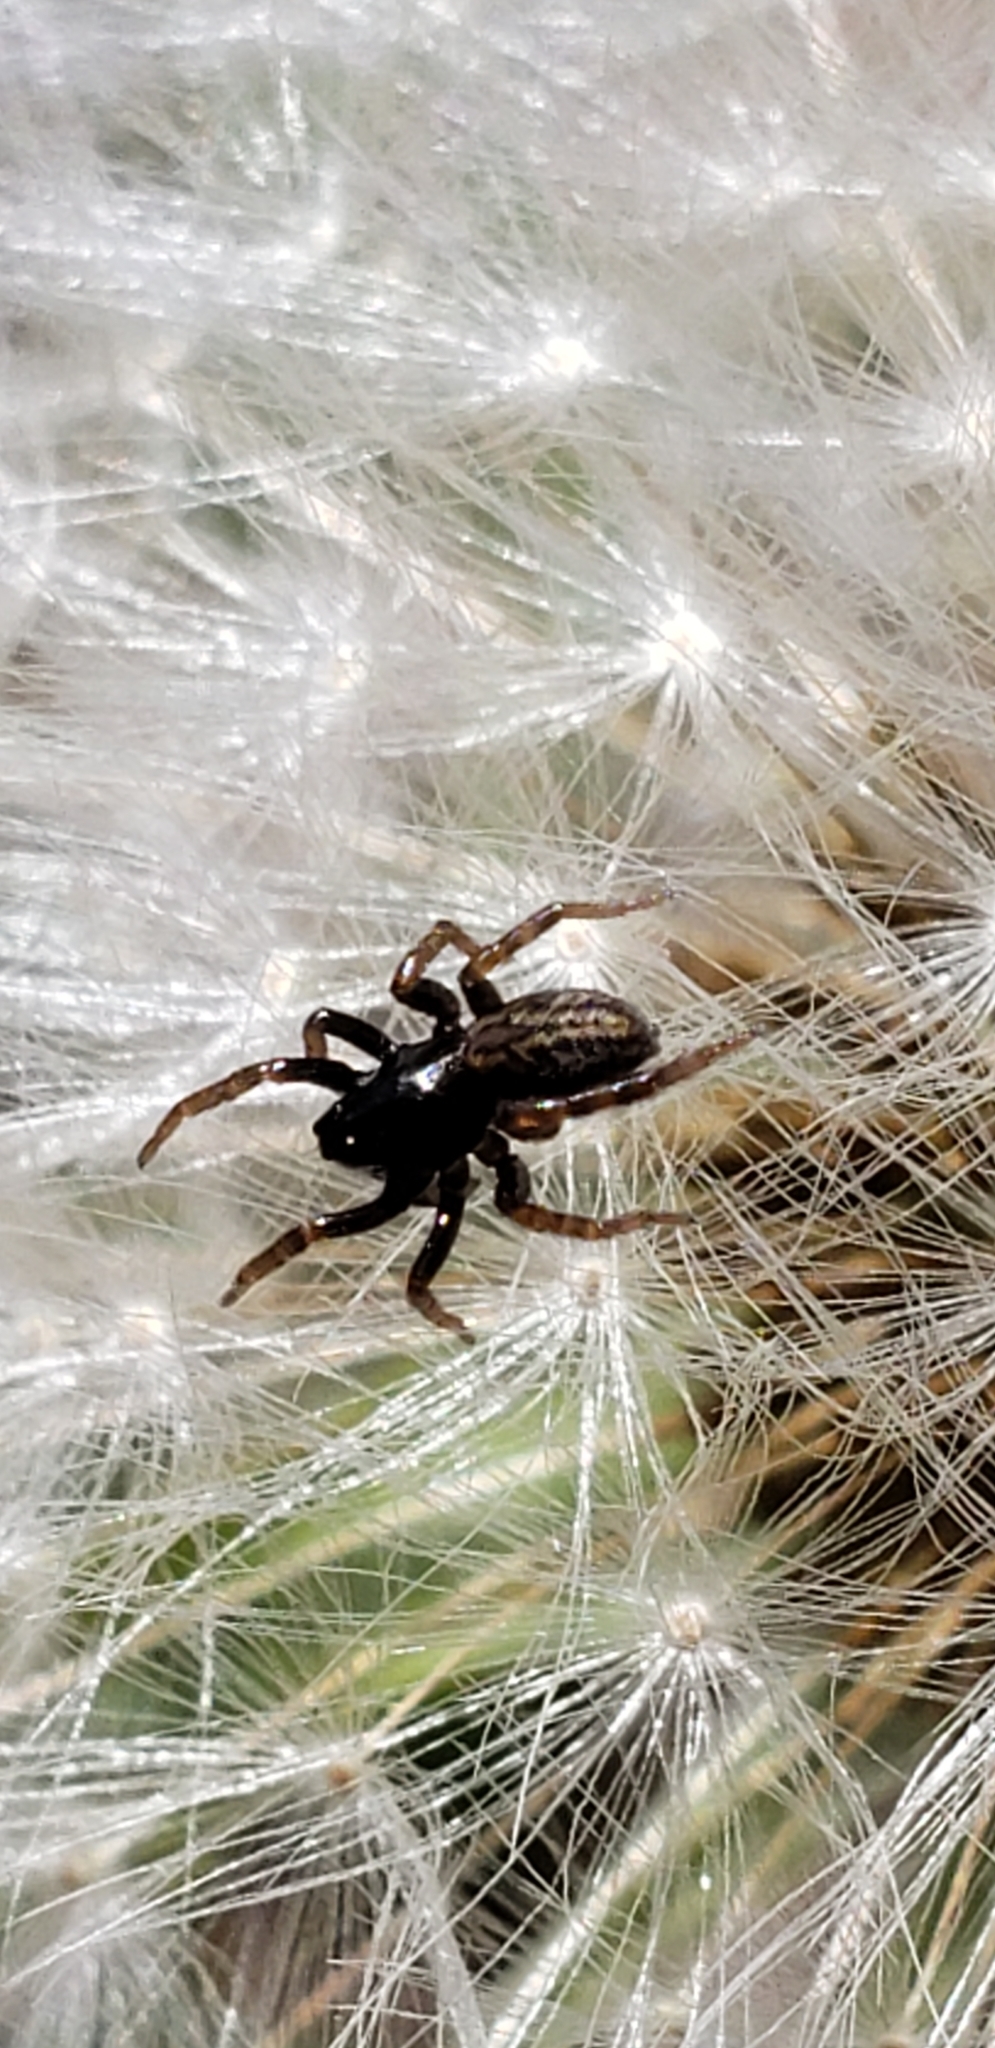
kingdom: Animalia
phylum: Arthropoda
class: Arachnida
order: Araneae
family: Lycosidae
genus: Allocosa
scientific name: Allocosa funerea
